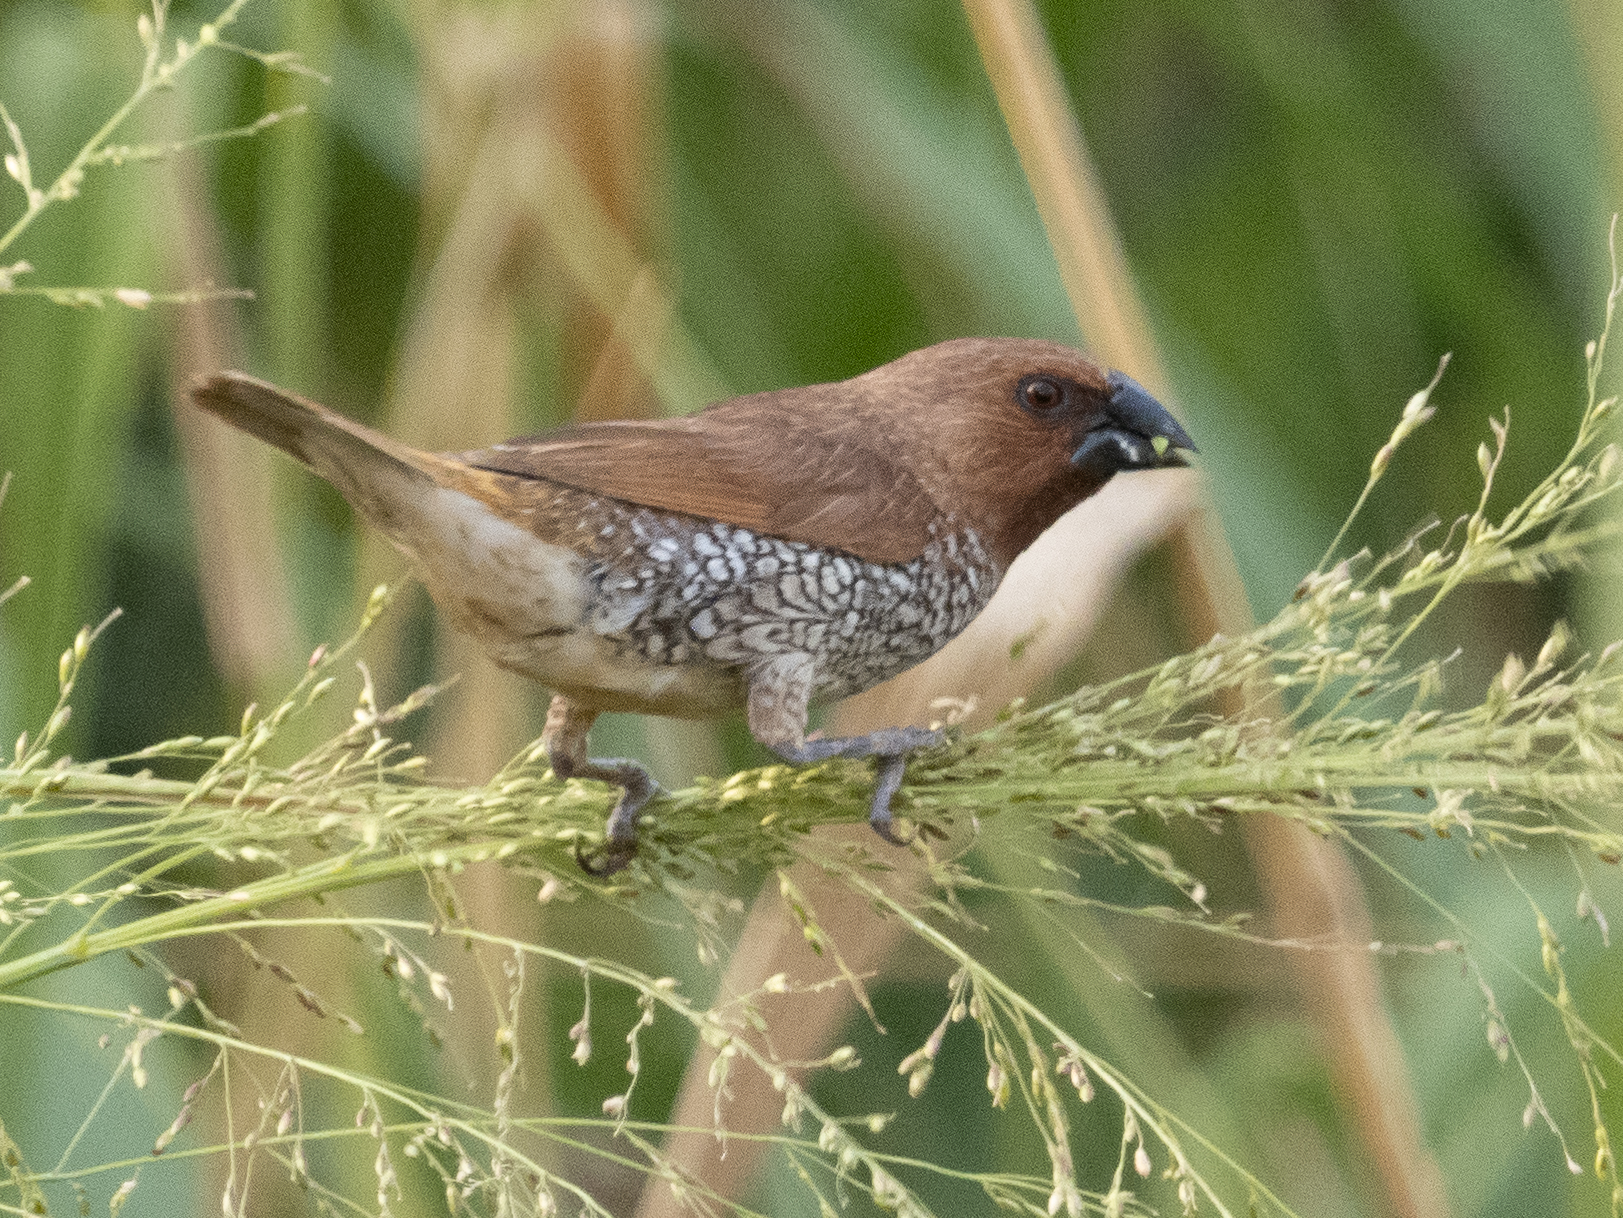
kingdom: Animalia
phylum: Chordata
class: Aves
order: Passeriformes
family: Estrildidae
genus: Lonchura
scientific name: Lonchura punctulata
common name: Scaly-breasted munia
